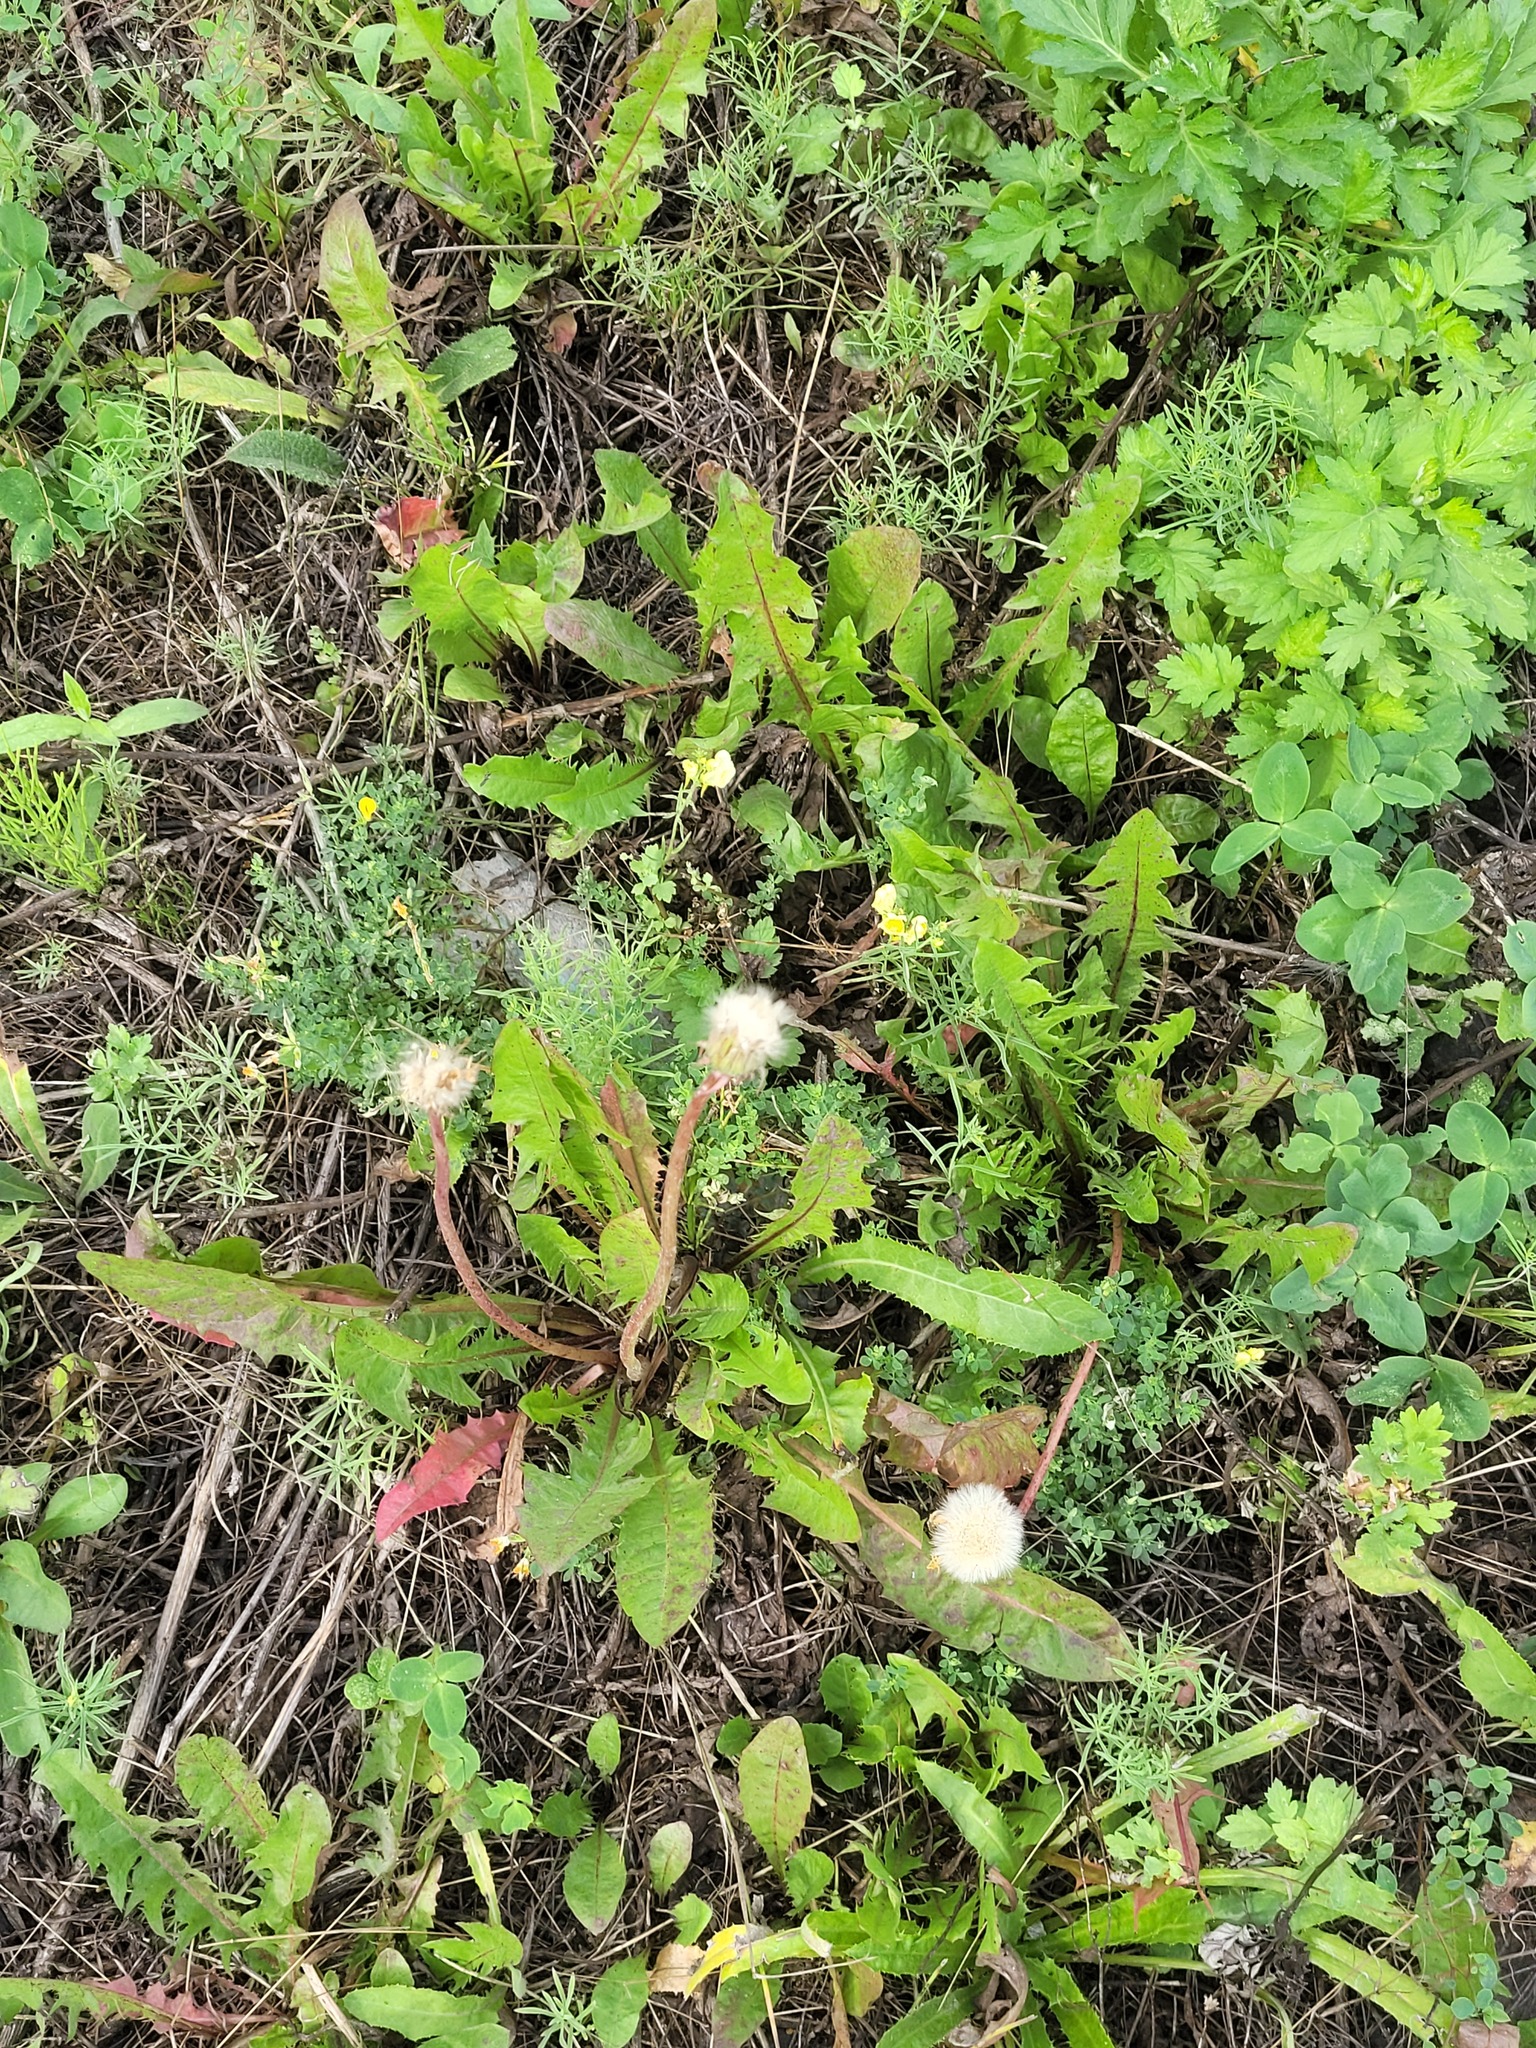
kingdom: Plantae
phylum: Tracheophyta
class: Magnoliopsida
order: Asterales
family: Asteraceae
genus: Taraxacum
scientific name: Taraxacum officinale
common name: Common dandelion
